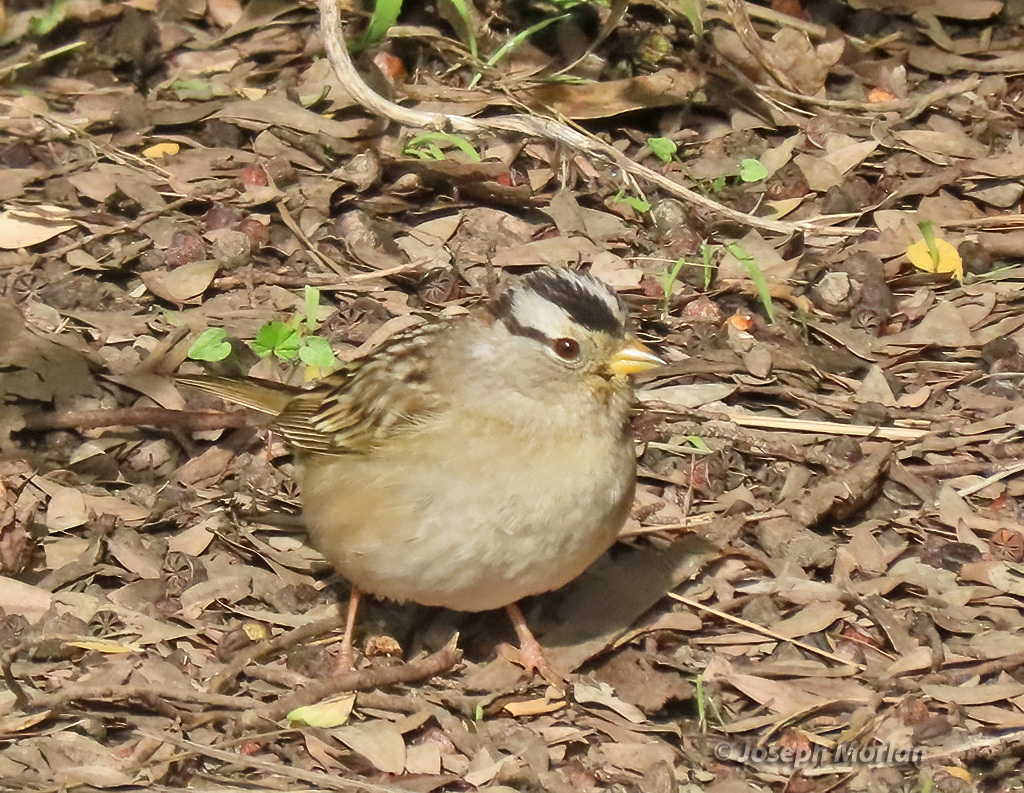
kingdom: Animalia
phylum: Chordata
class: Aves
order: Passeriformes
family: Passerellidae
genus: Zonotrichia
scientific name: Zonotrichia leucophrys
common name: White-crowned sparrow
